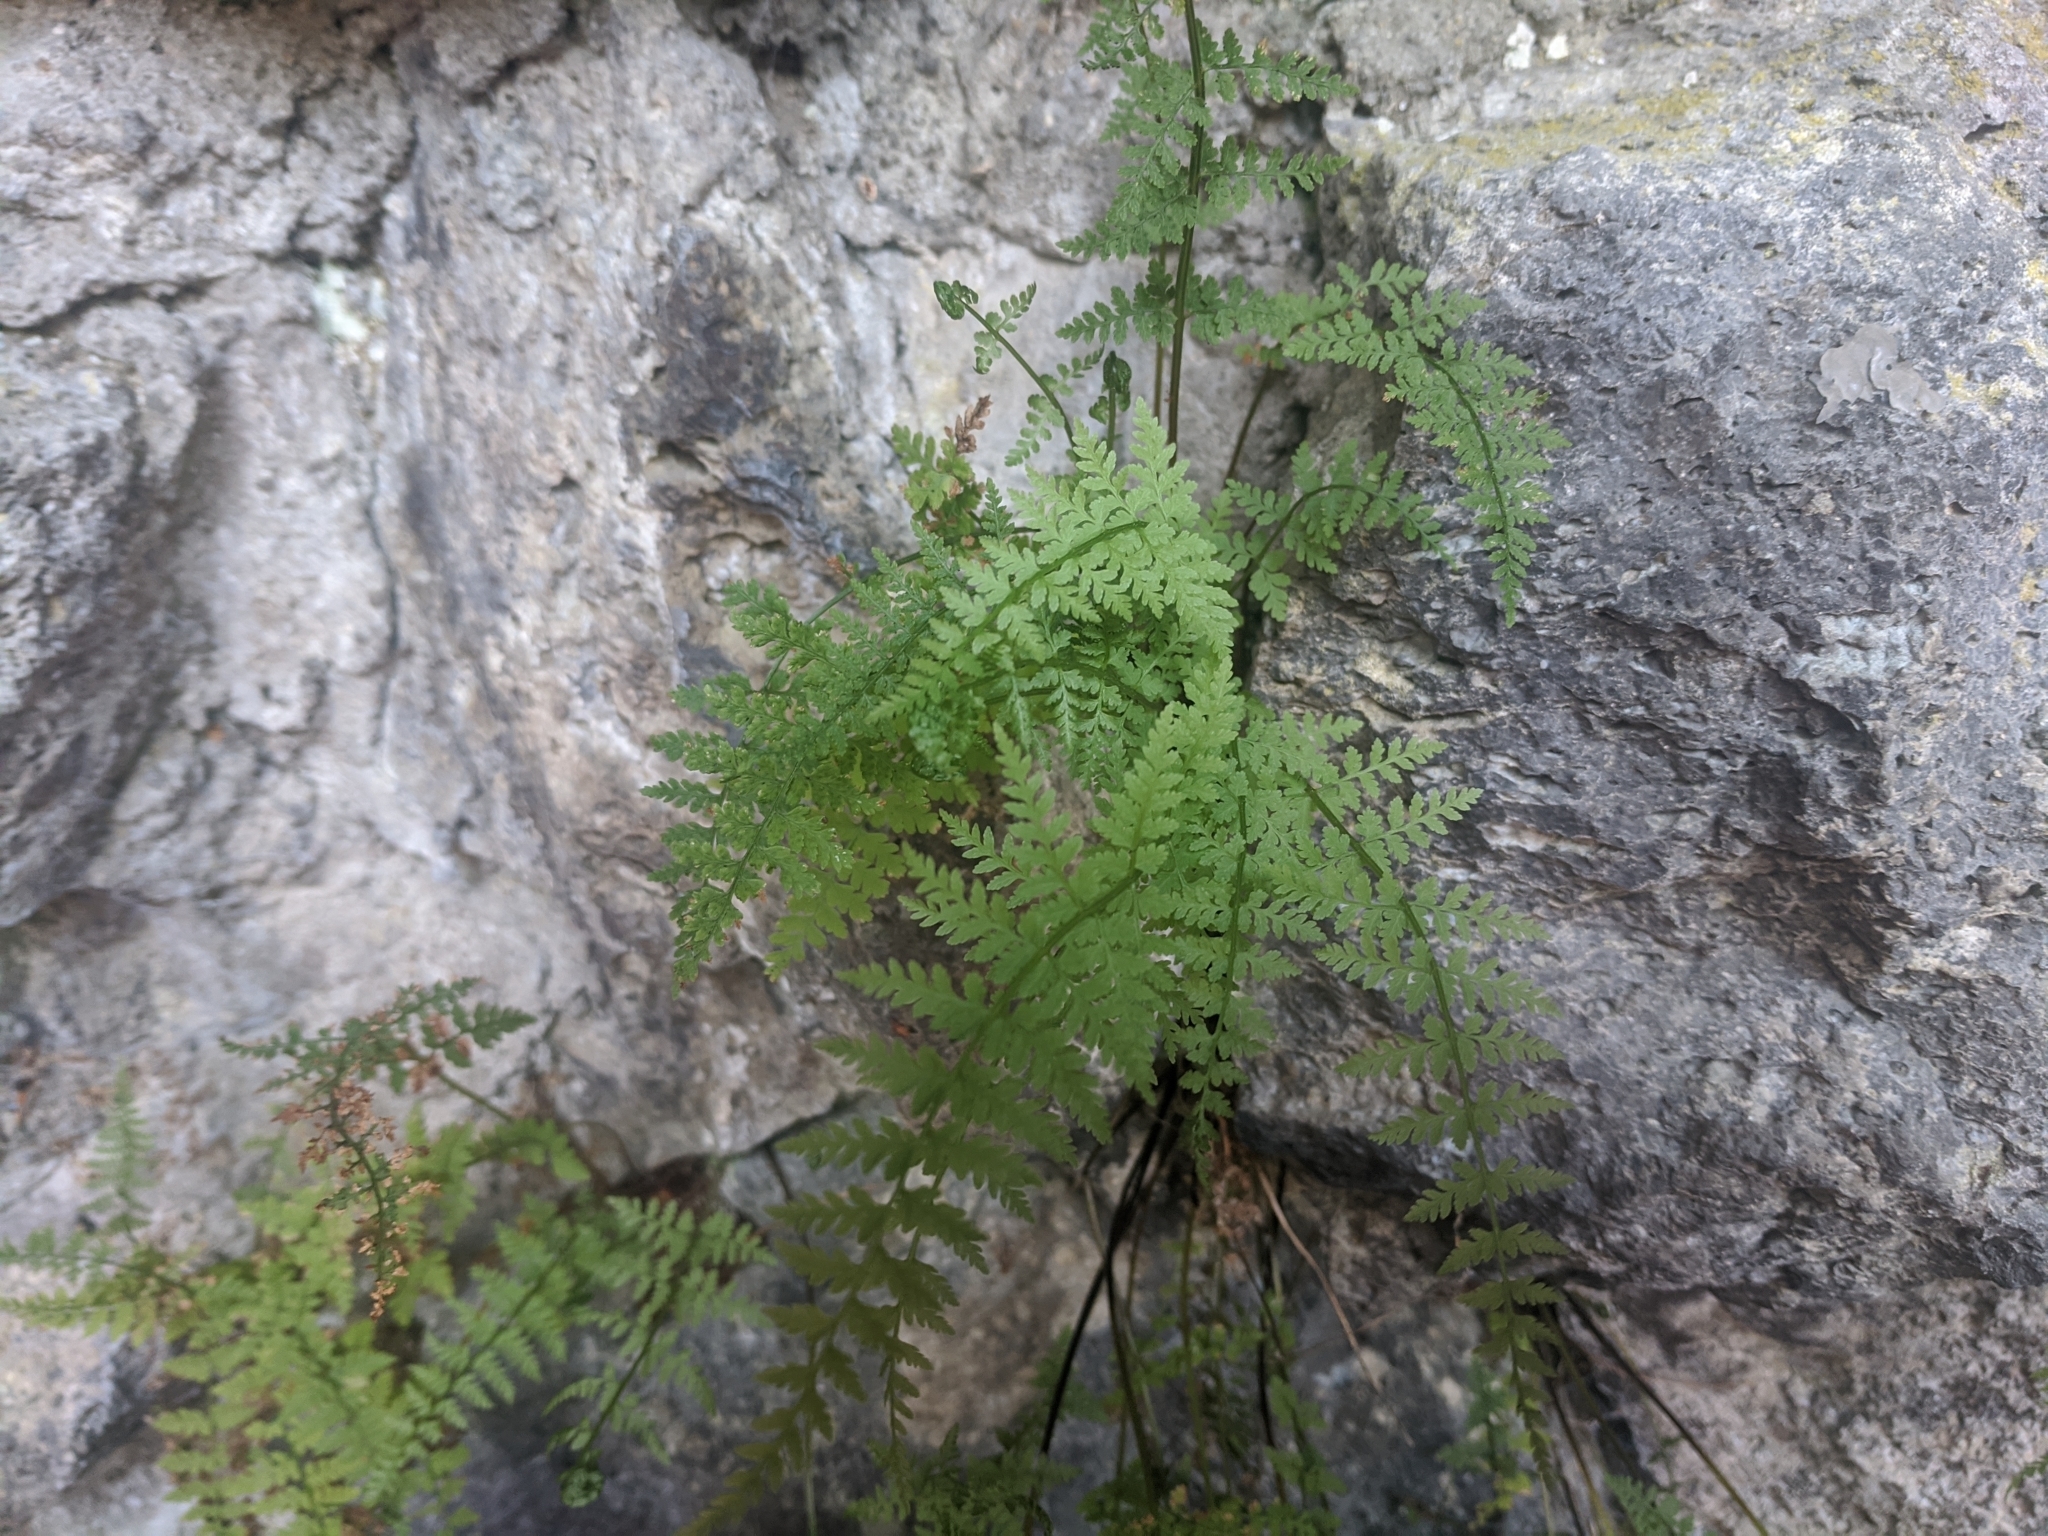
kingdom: Plantae
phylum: Tracheophyta
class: Polypodiopsida
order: Polypodiales
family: Cystopteridaceae
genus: Cystopteris
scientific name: Cystopteris fragilis
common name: Brittle bladder fern
